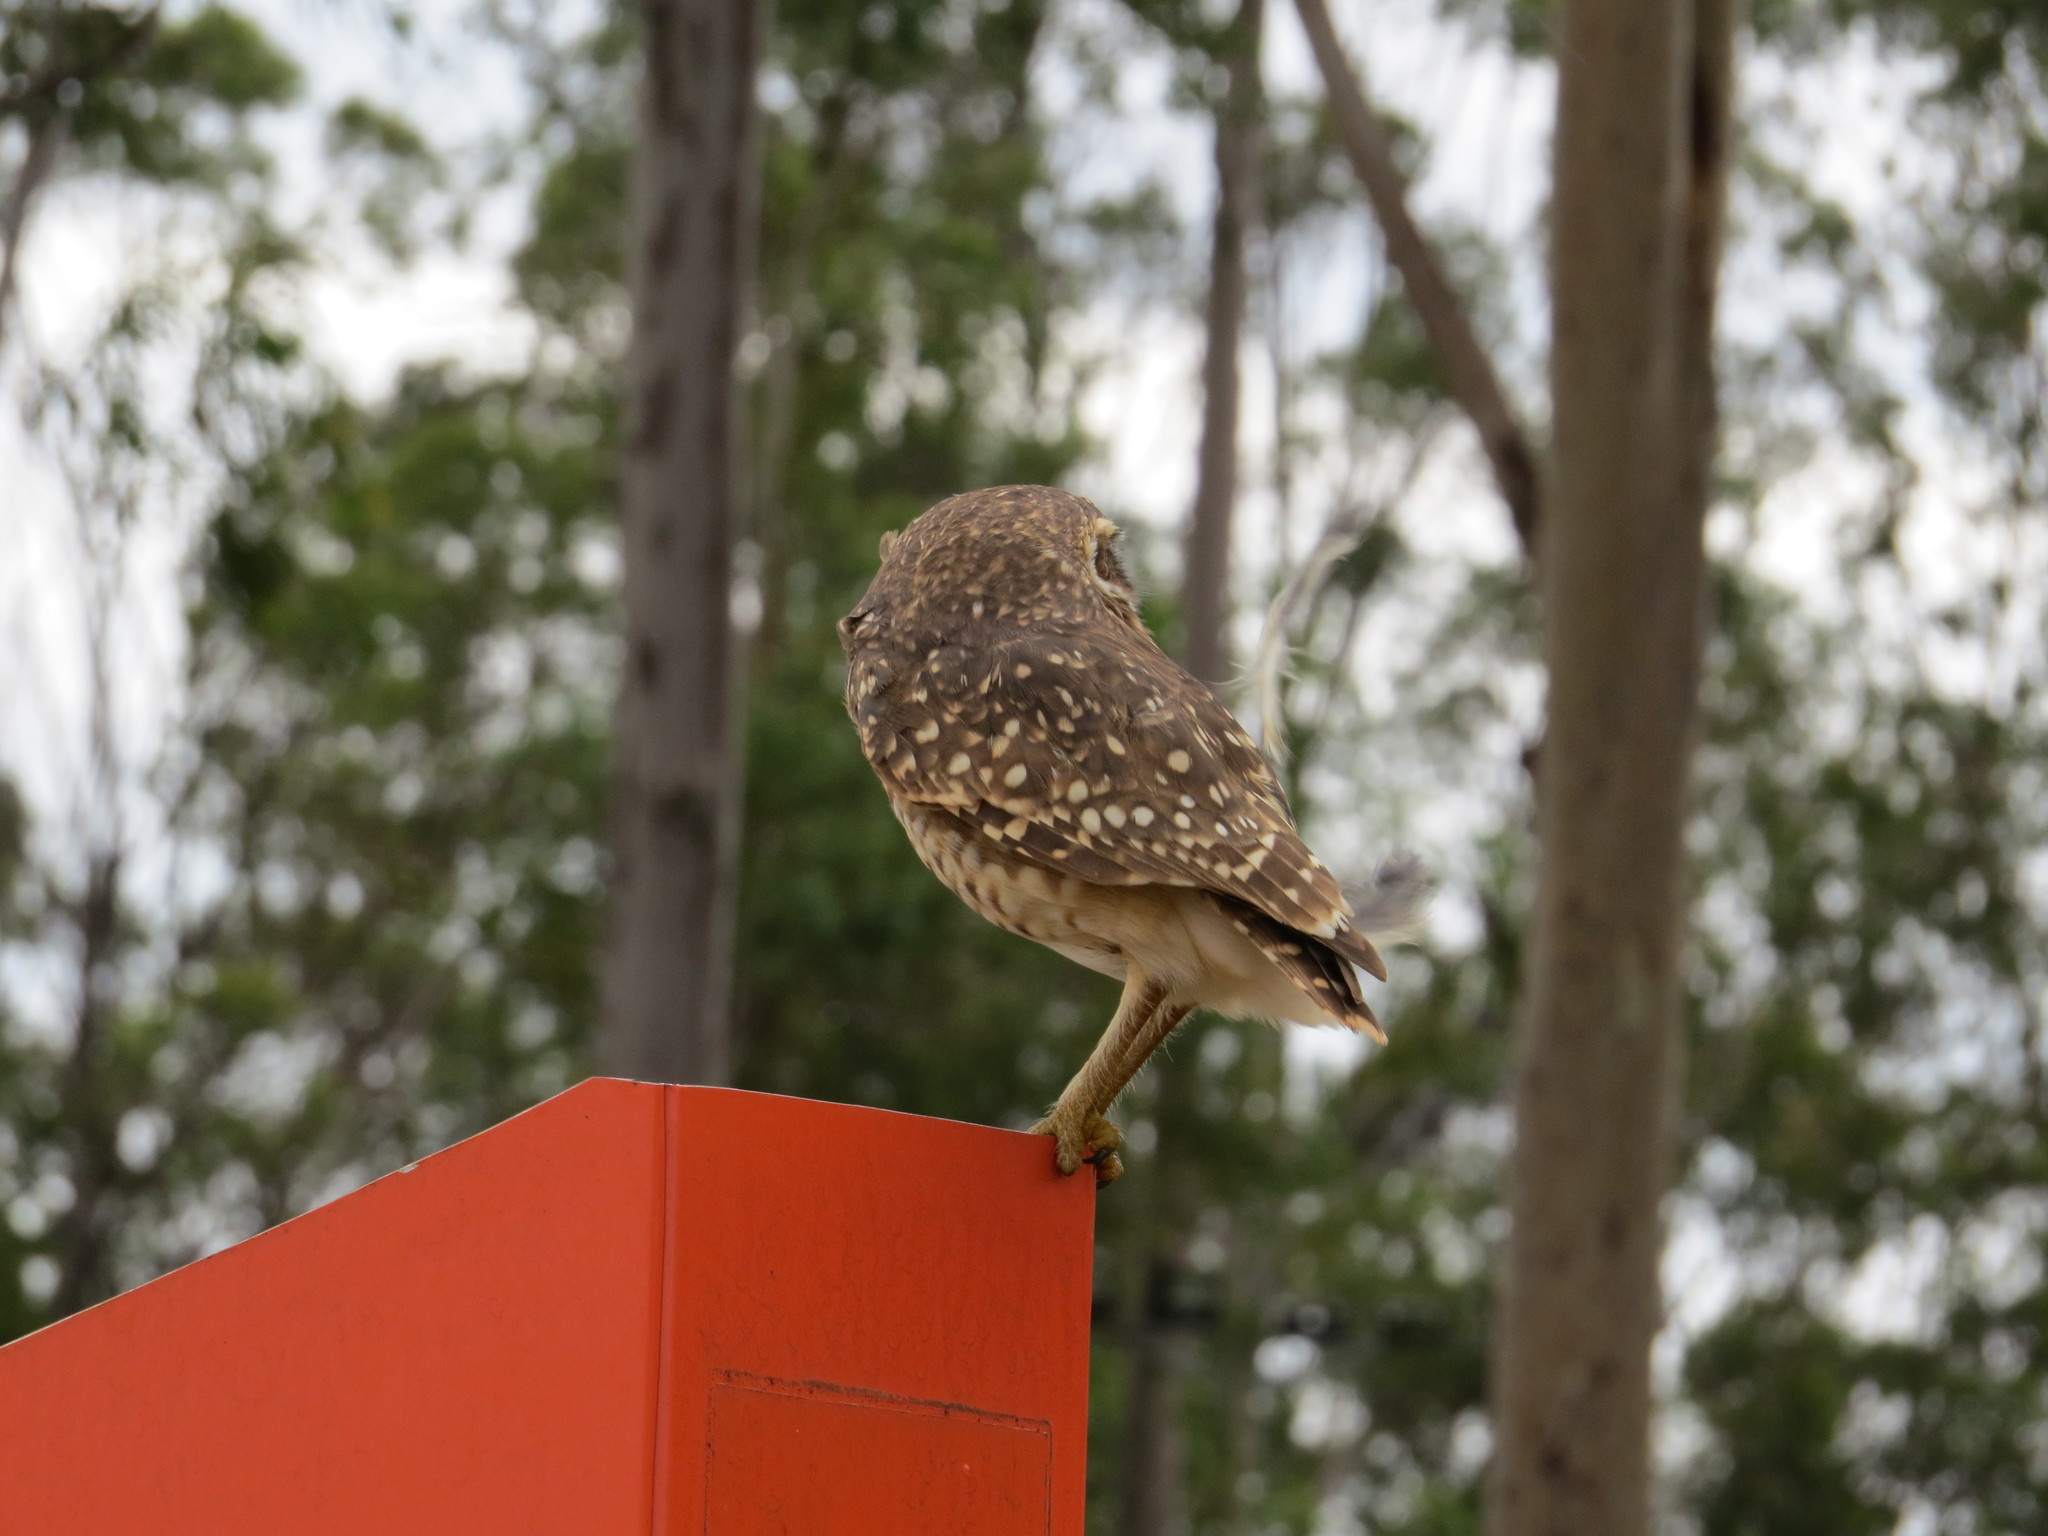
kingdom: Animalia
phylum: Chordata
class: Aves
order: Strigiformes
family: Strigidae
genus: Athene
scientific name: Athene cunicularia
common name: Burrowing owl
